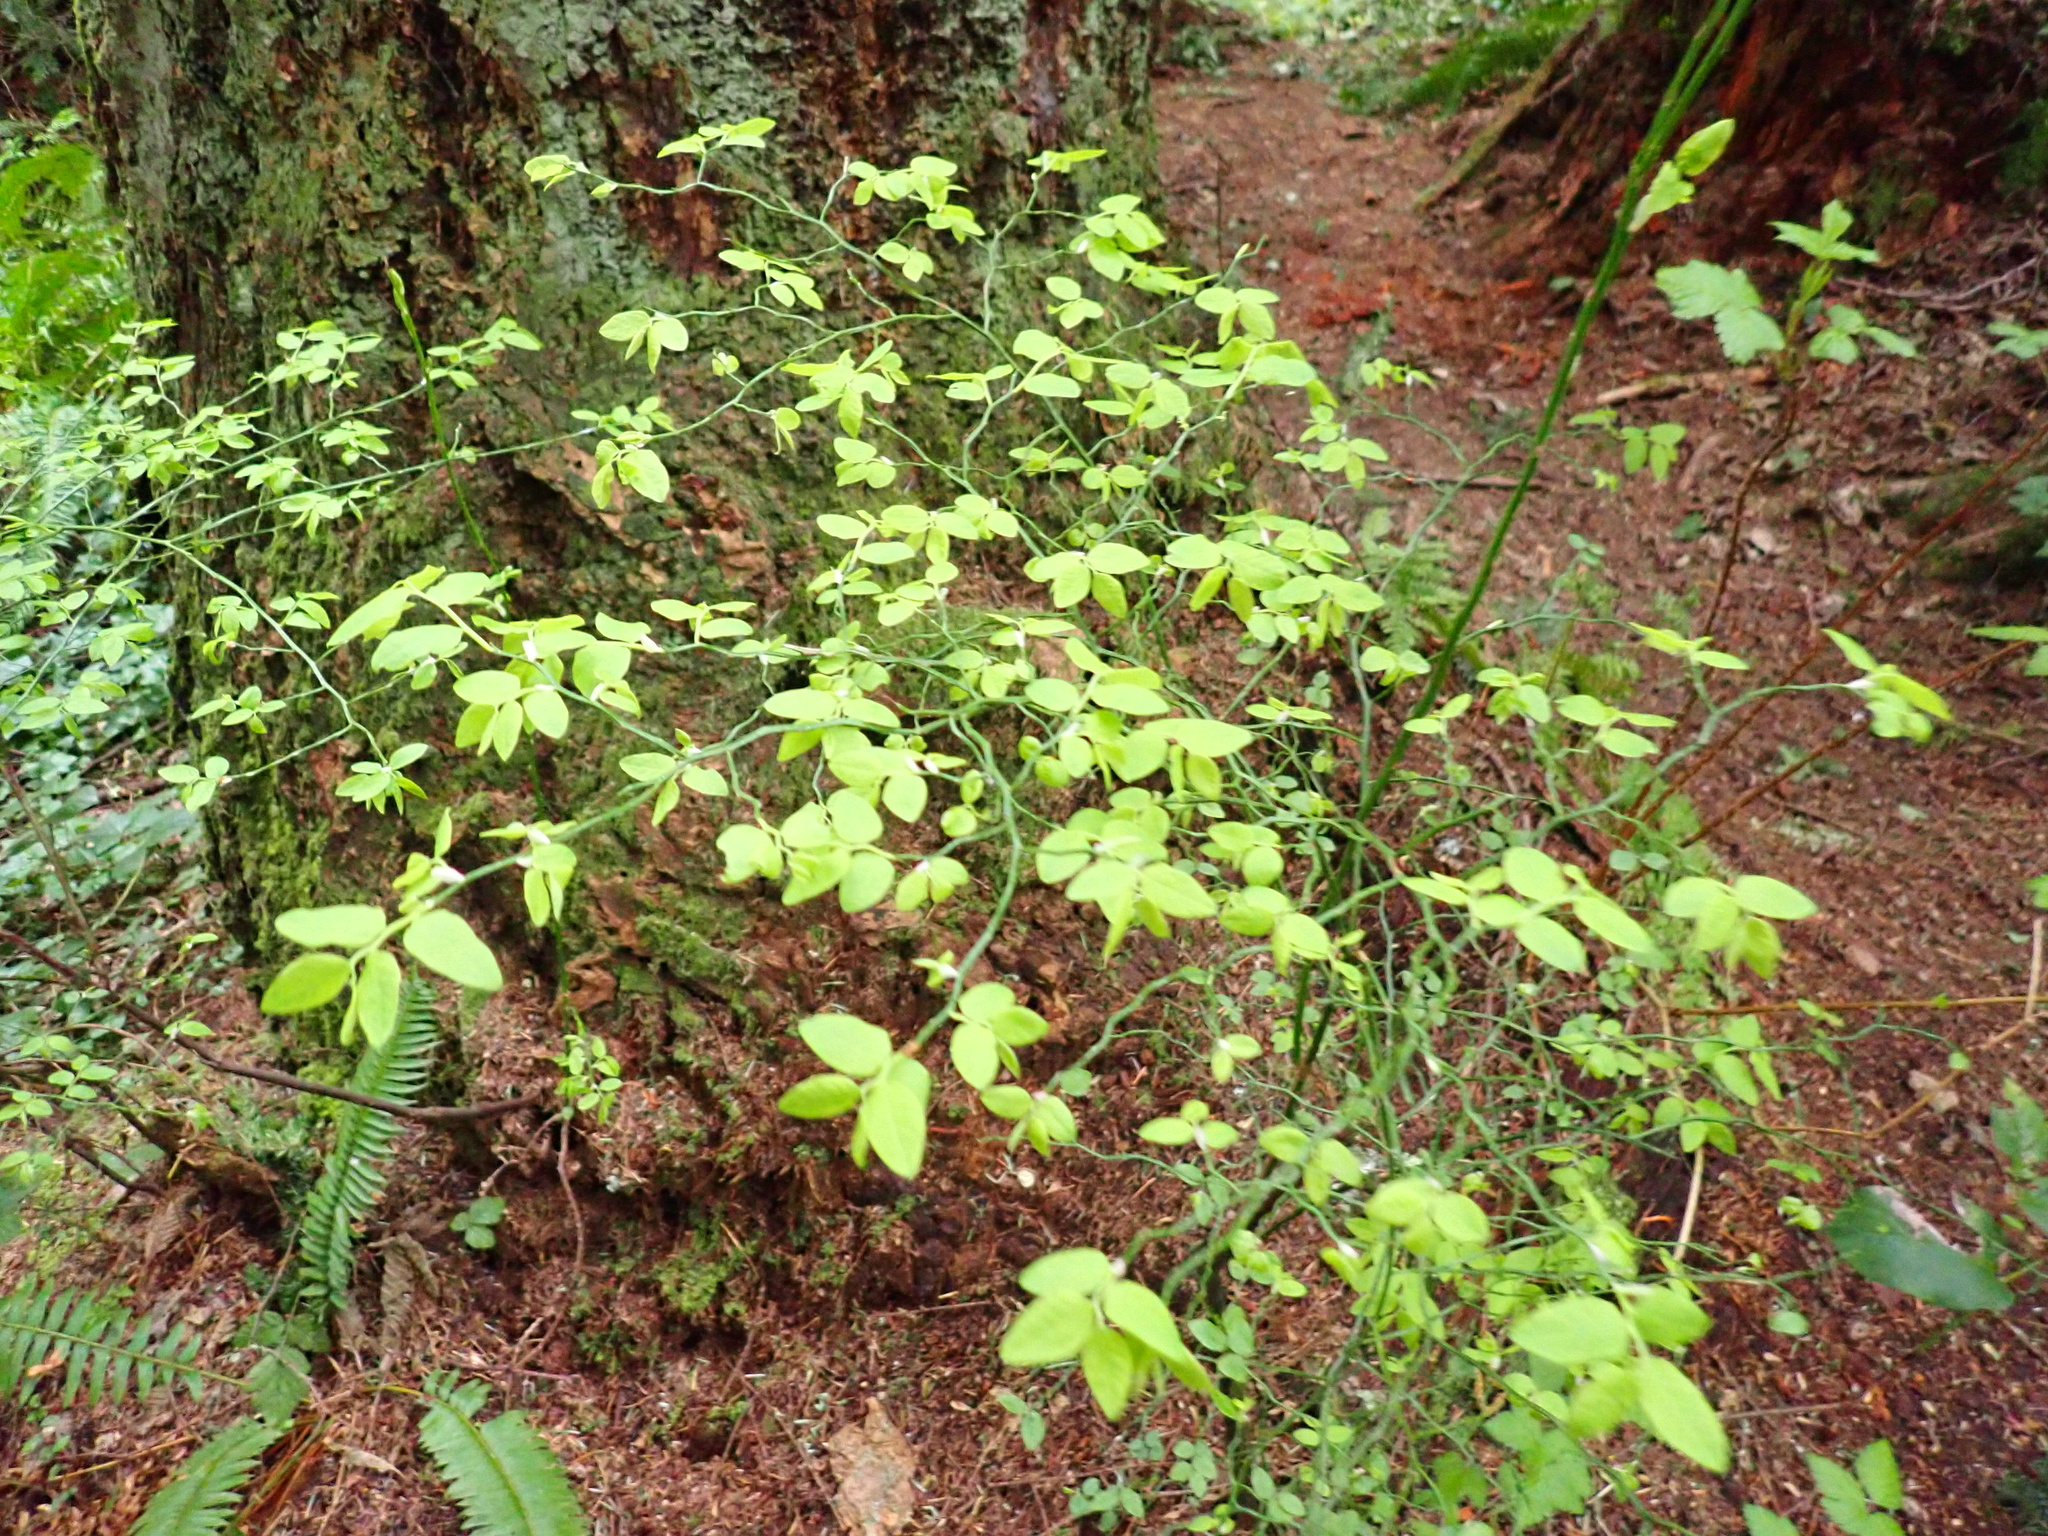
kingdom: Plantae
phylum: Tracheophyta
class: Magnoliopsida
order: Ericales
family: Ericaceae
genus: Vaccinium
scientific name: Vaccinium parvifolium
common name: Red-huckleberry
